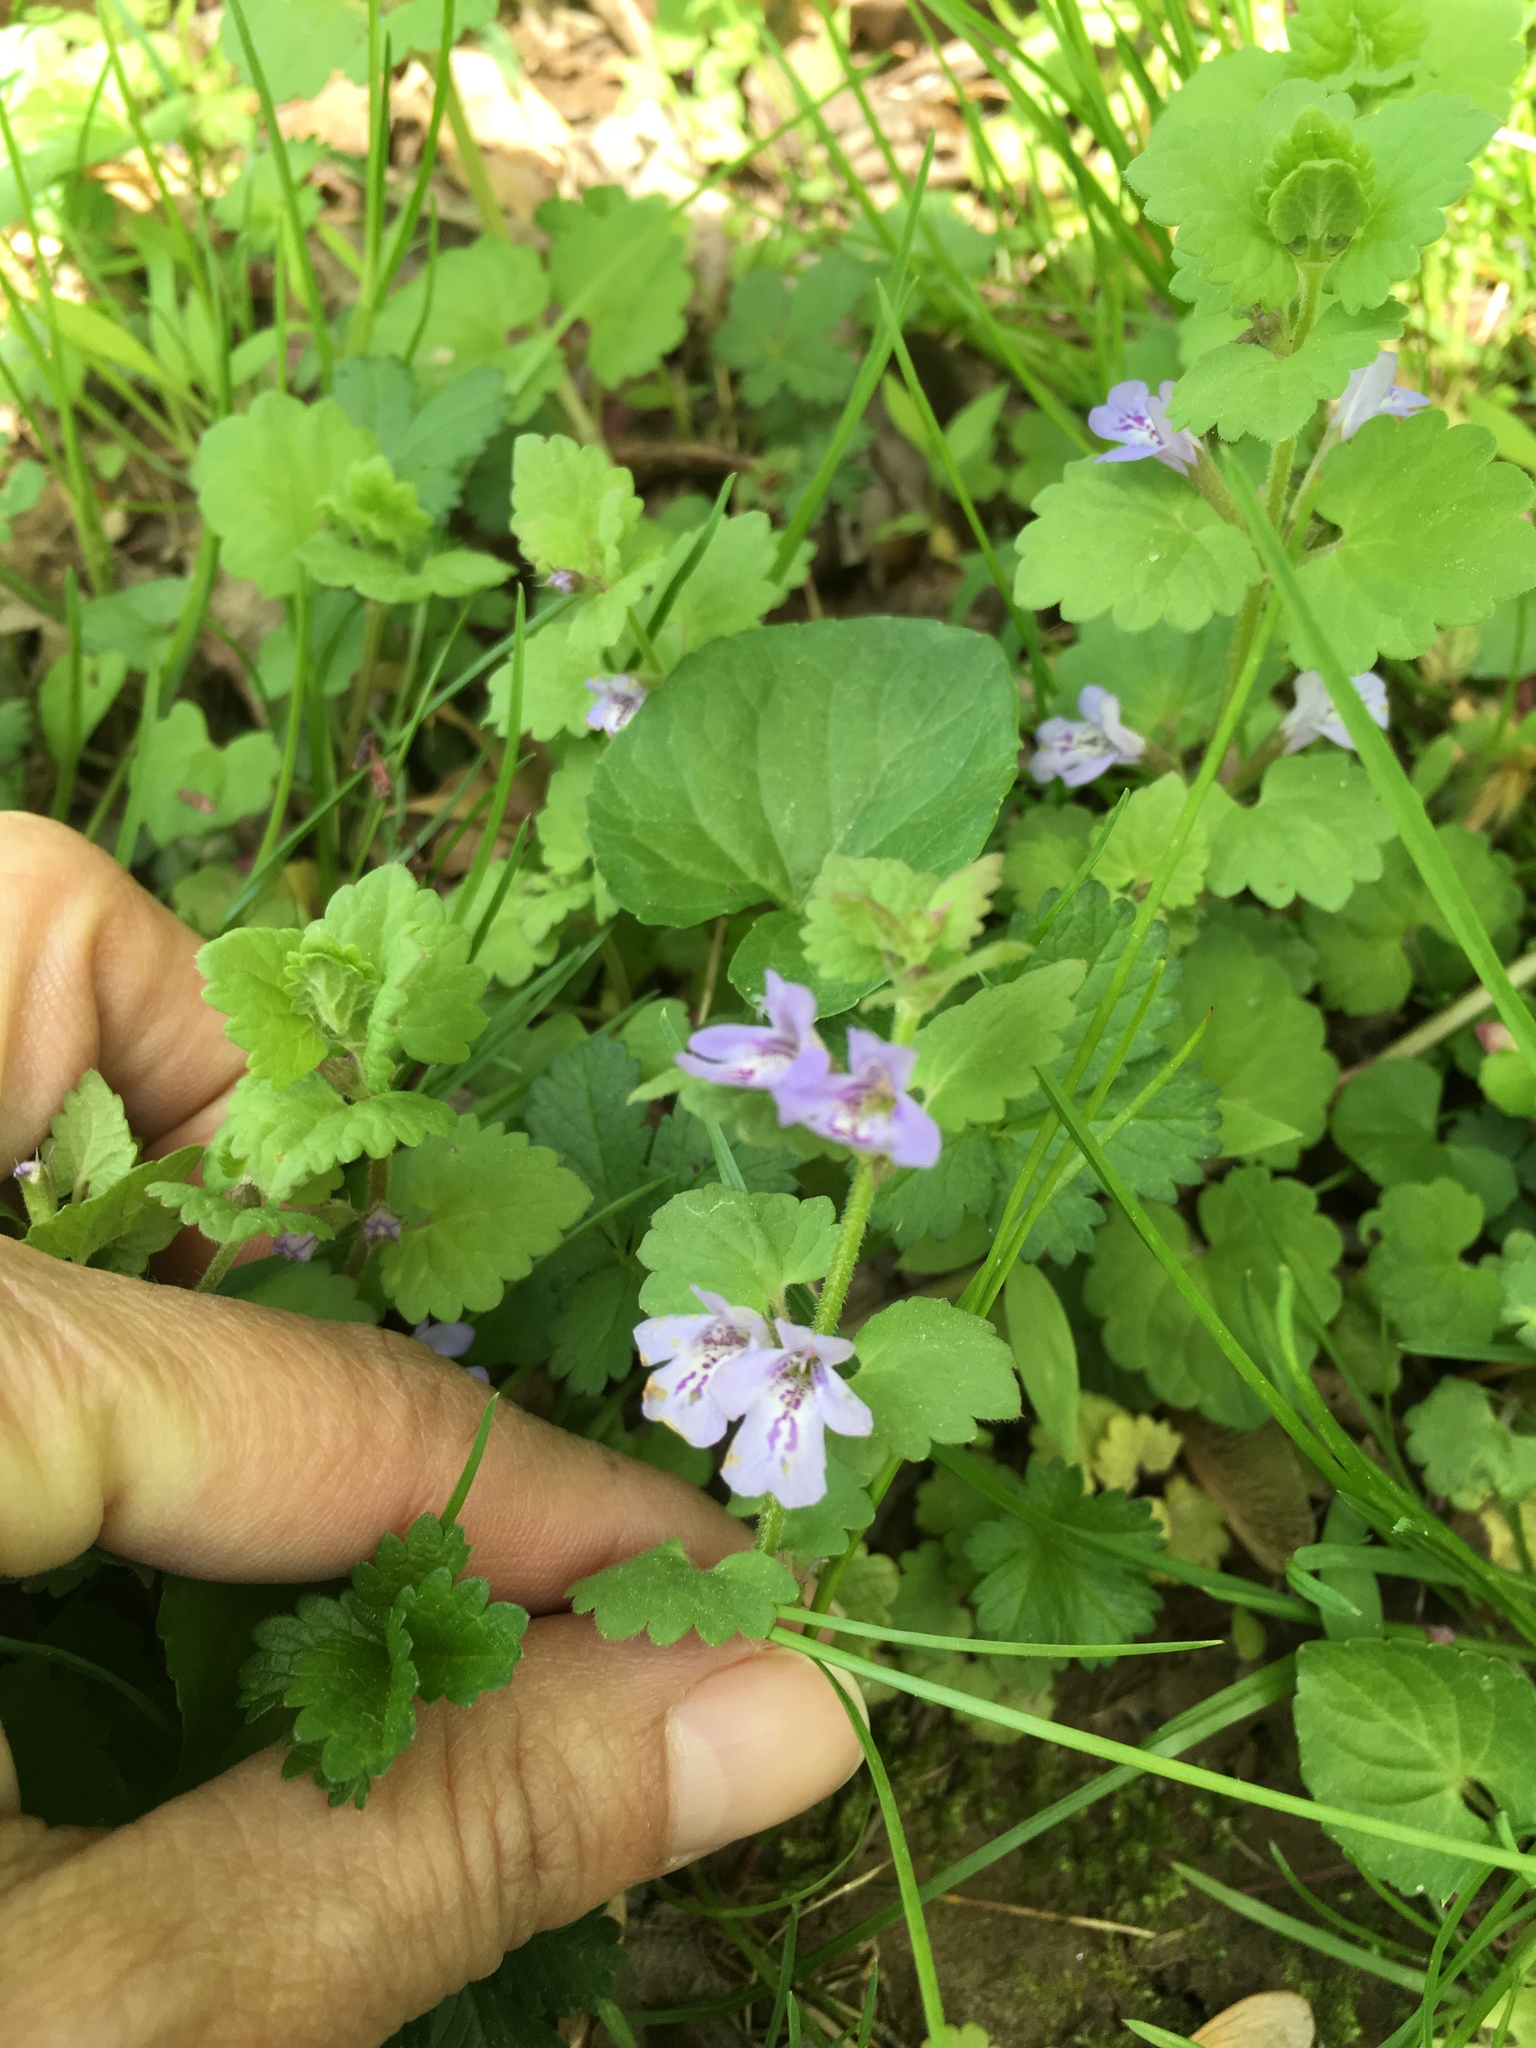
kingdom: Plantae
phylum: Tracheophyta
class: Magnoliopsida
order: Lamiales
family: Lamiaceae
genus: Glechoma
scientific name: Glechoma hederacea
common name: Ground ivy
